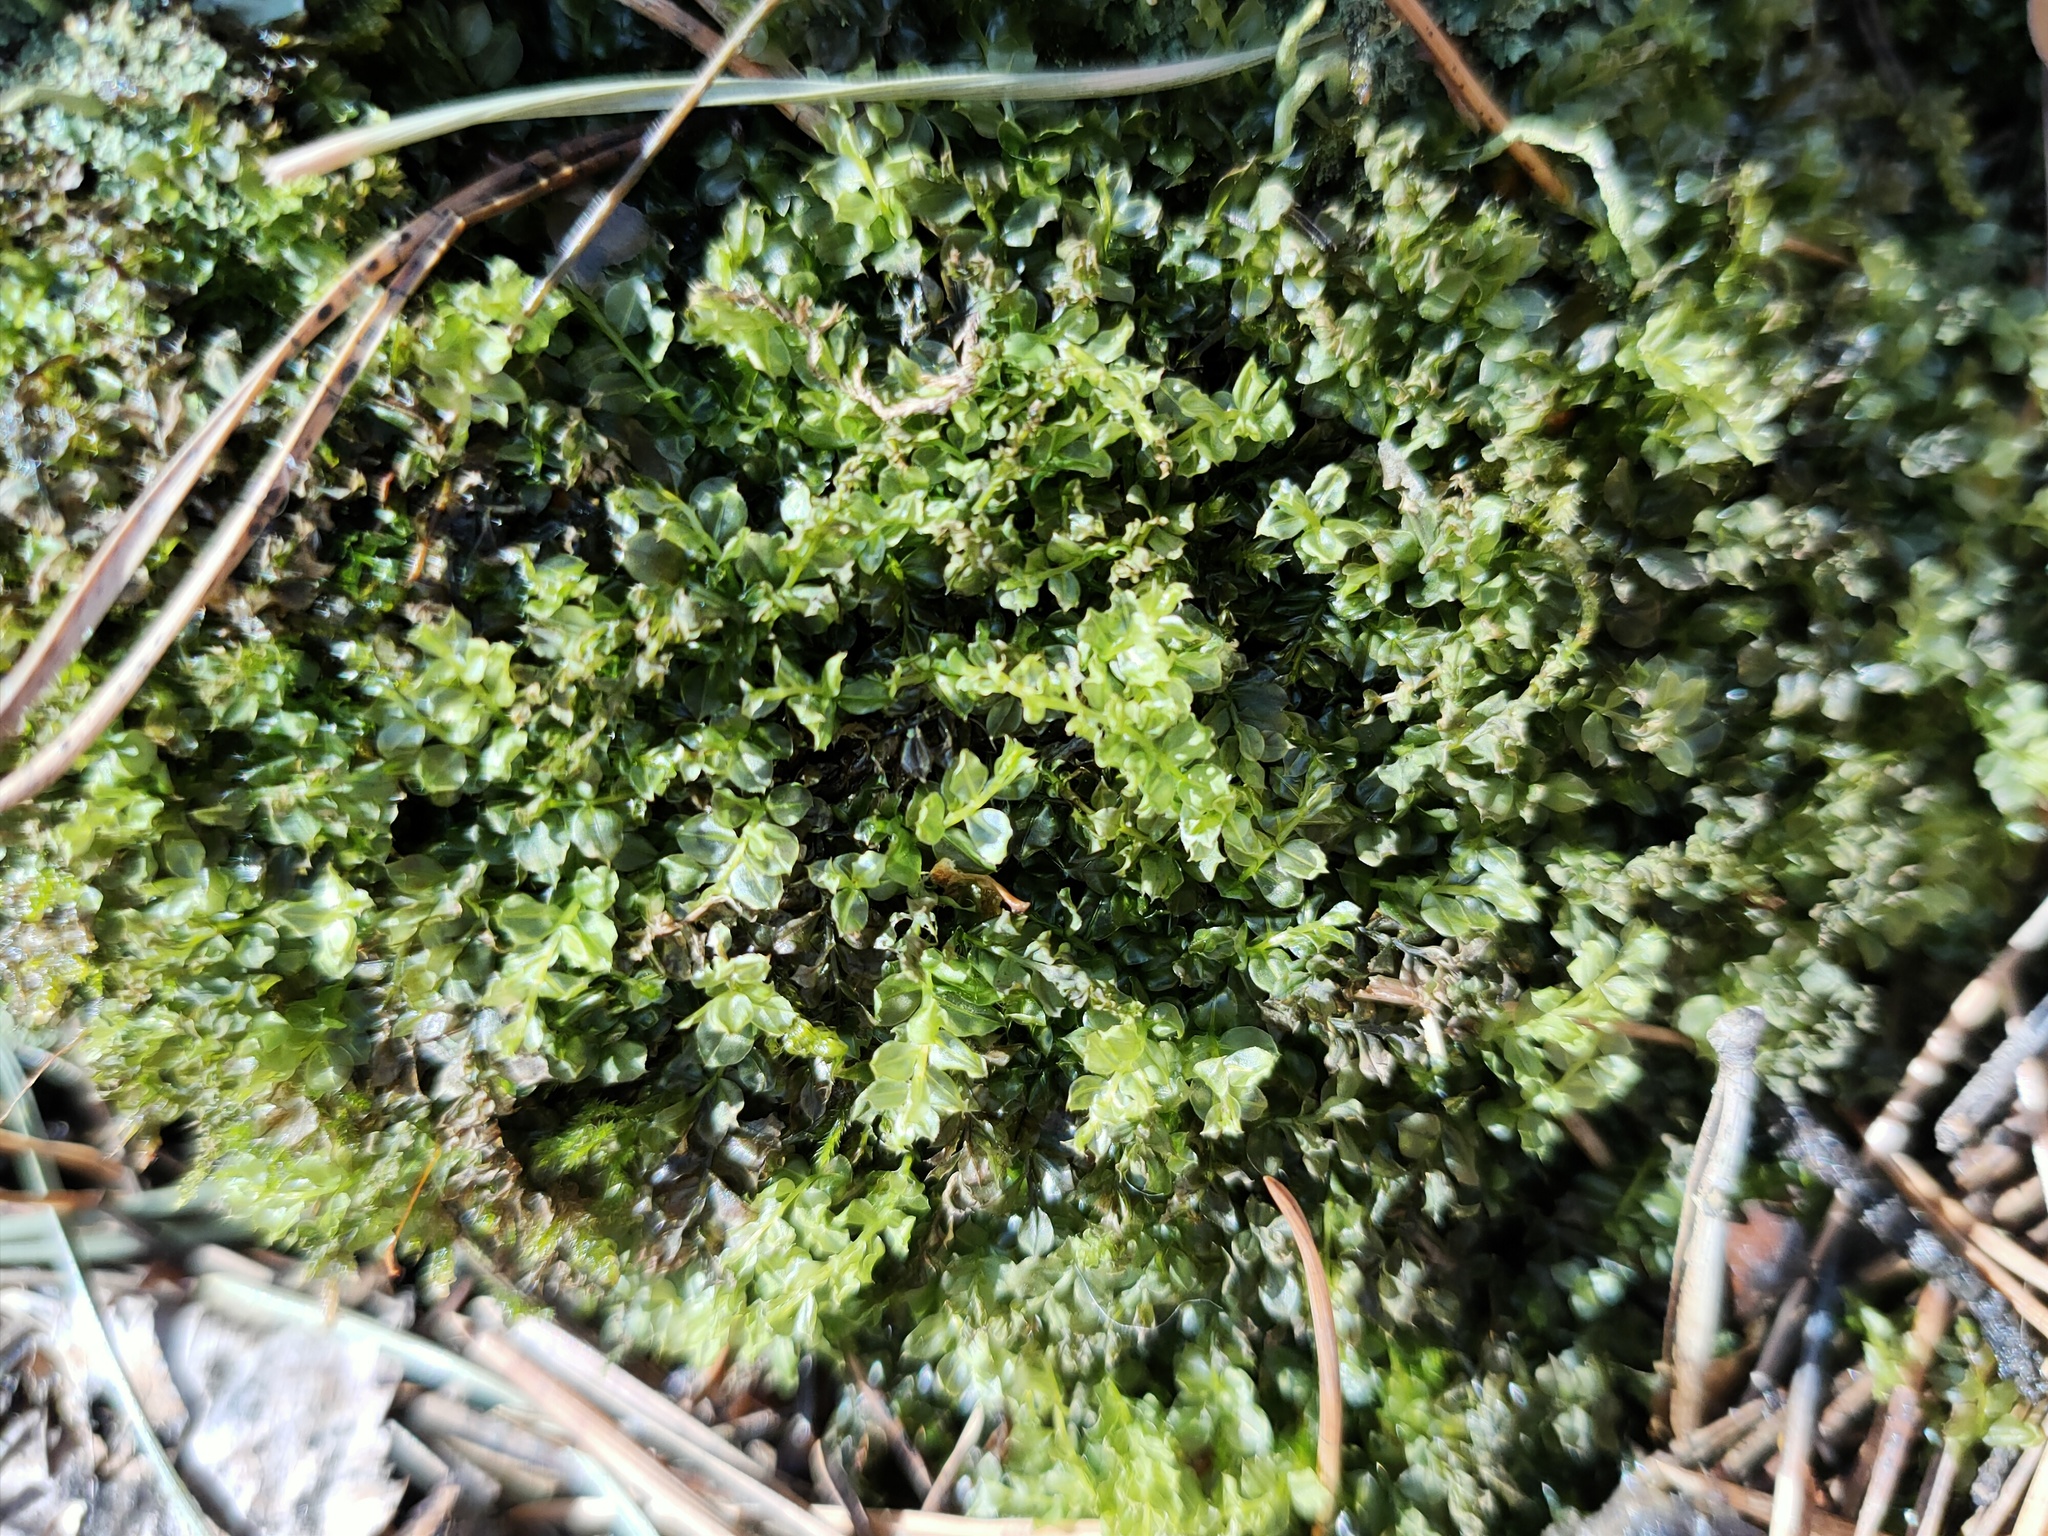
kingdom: Plantae
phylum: Bryophyta
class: Bryopsida
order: Bryales
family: Mniaceae
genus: Plagiomnium
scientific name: Plagiomnium cuspidatum
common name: Woodsy leafy moss
